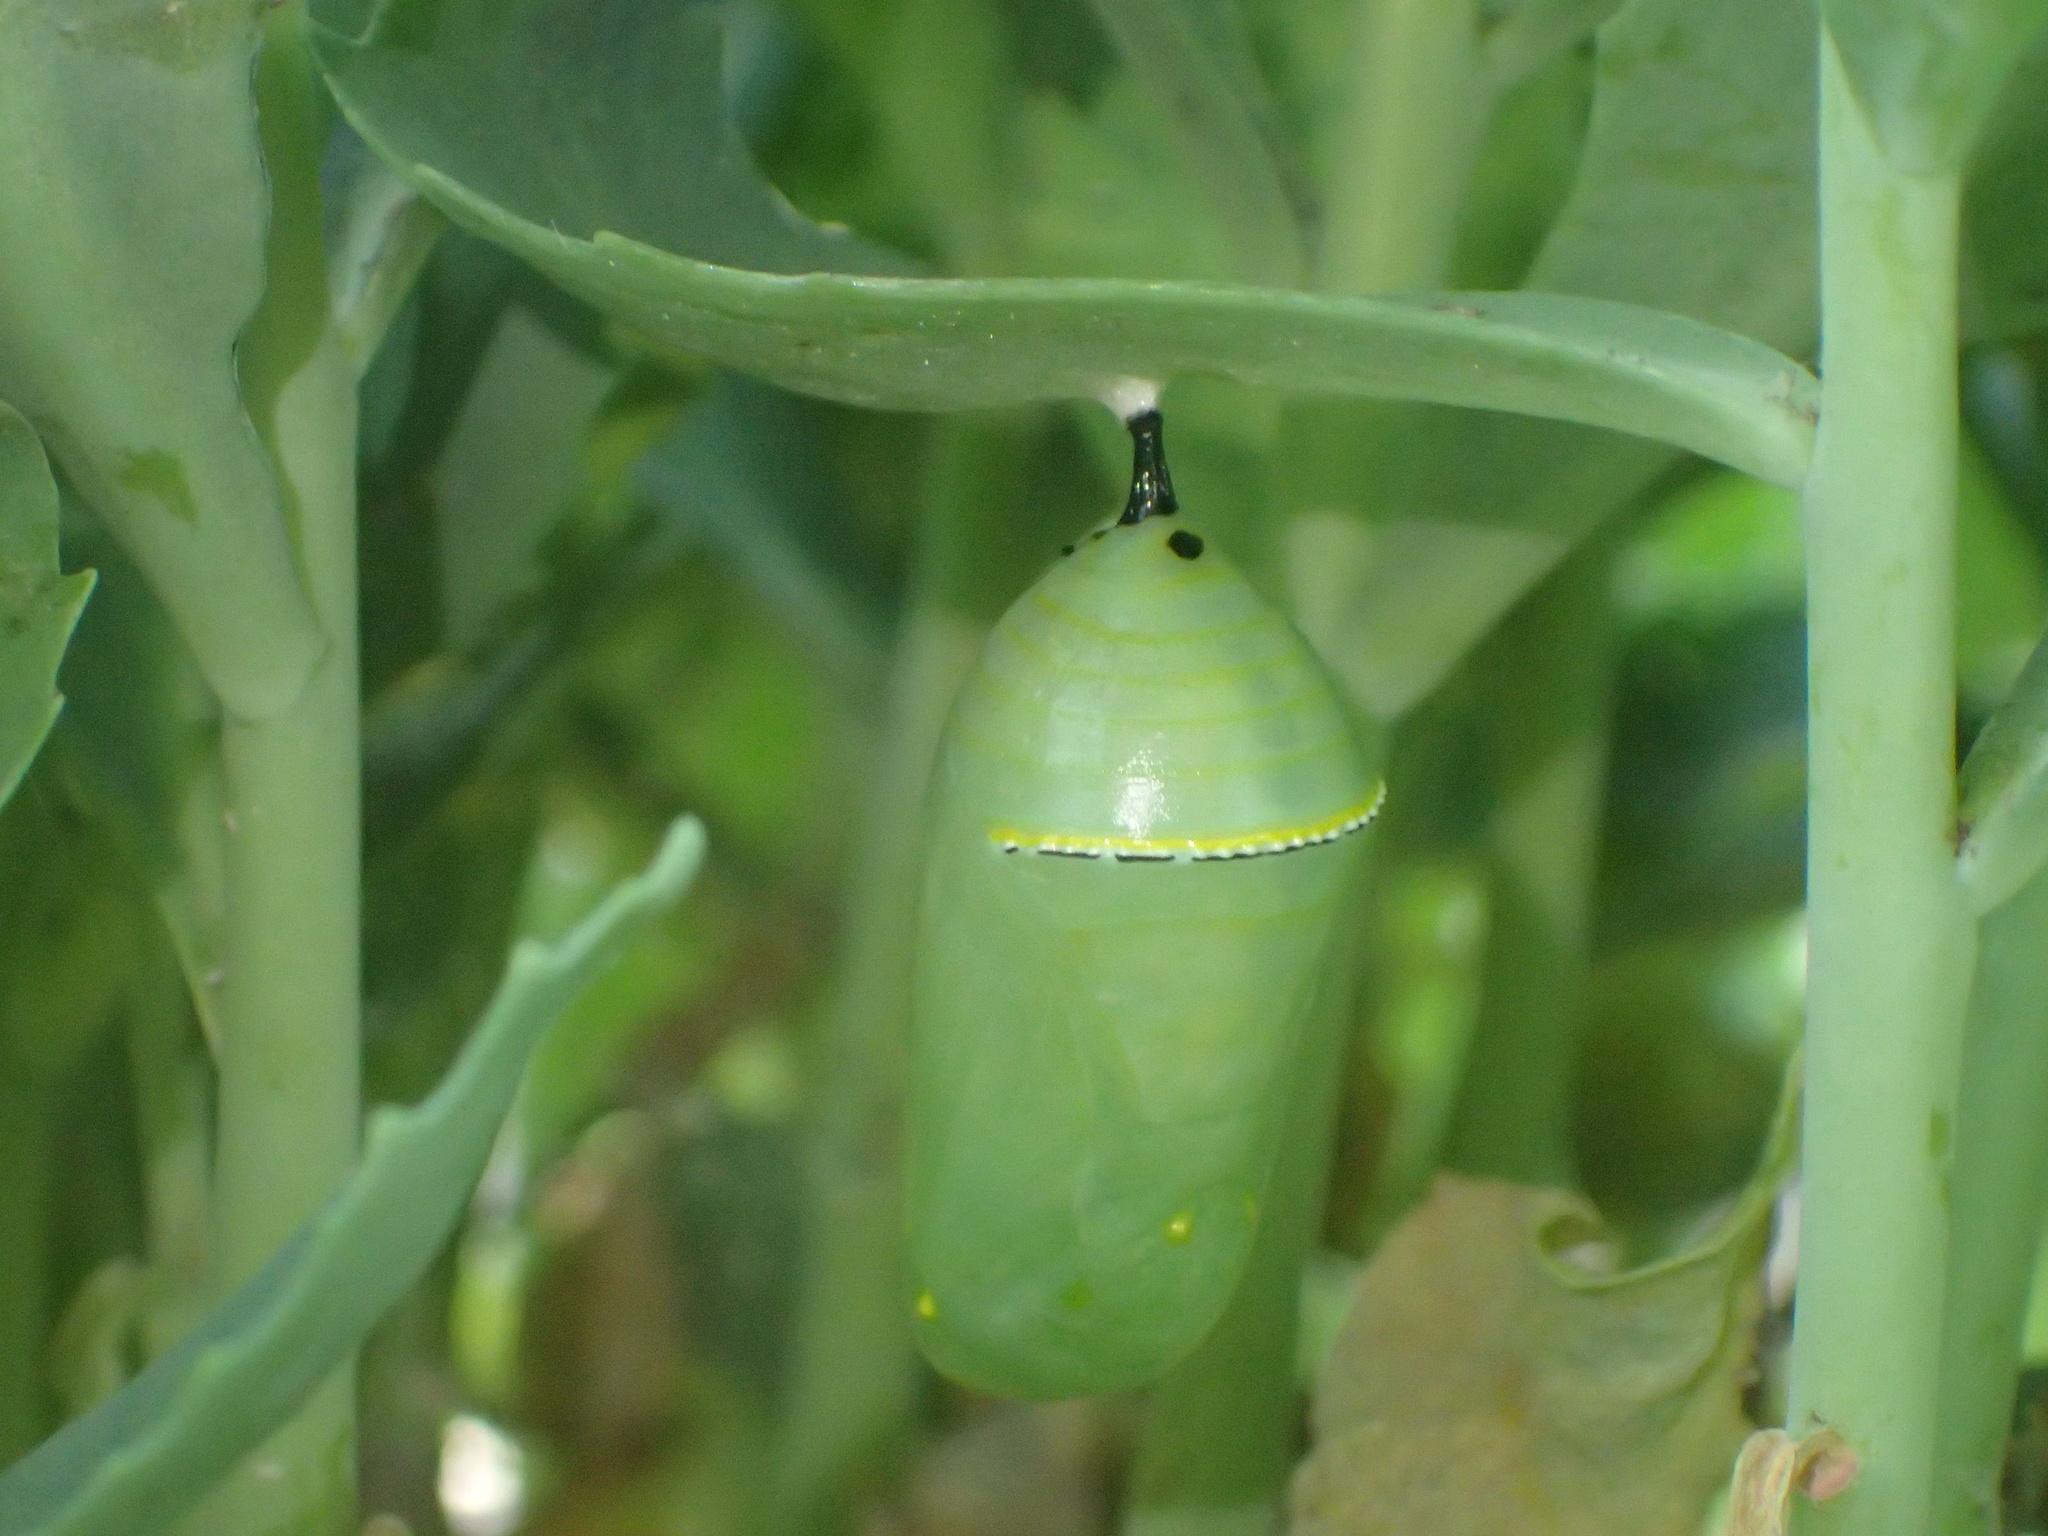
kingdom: Animalia
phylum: Arthropoda
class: Insecta
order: Lepidoptera
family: Nymphalidae
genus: Danaus
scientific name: Danaus plexippus
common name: Monarch
